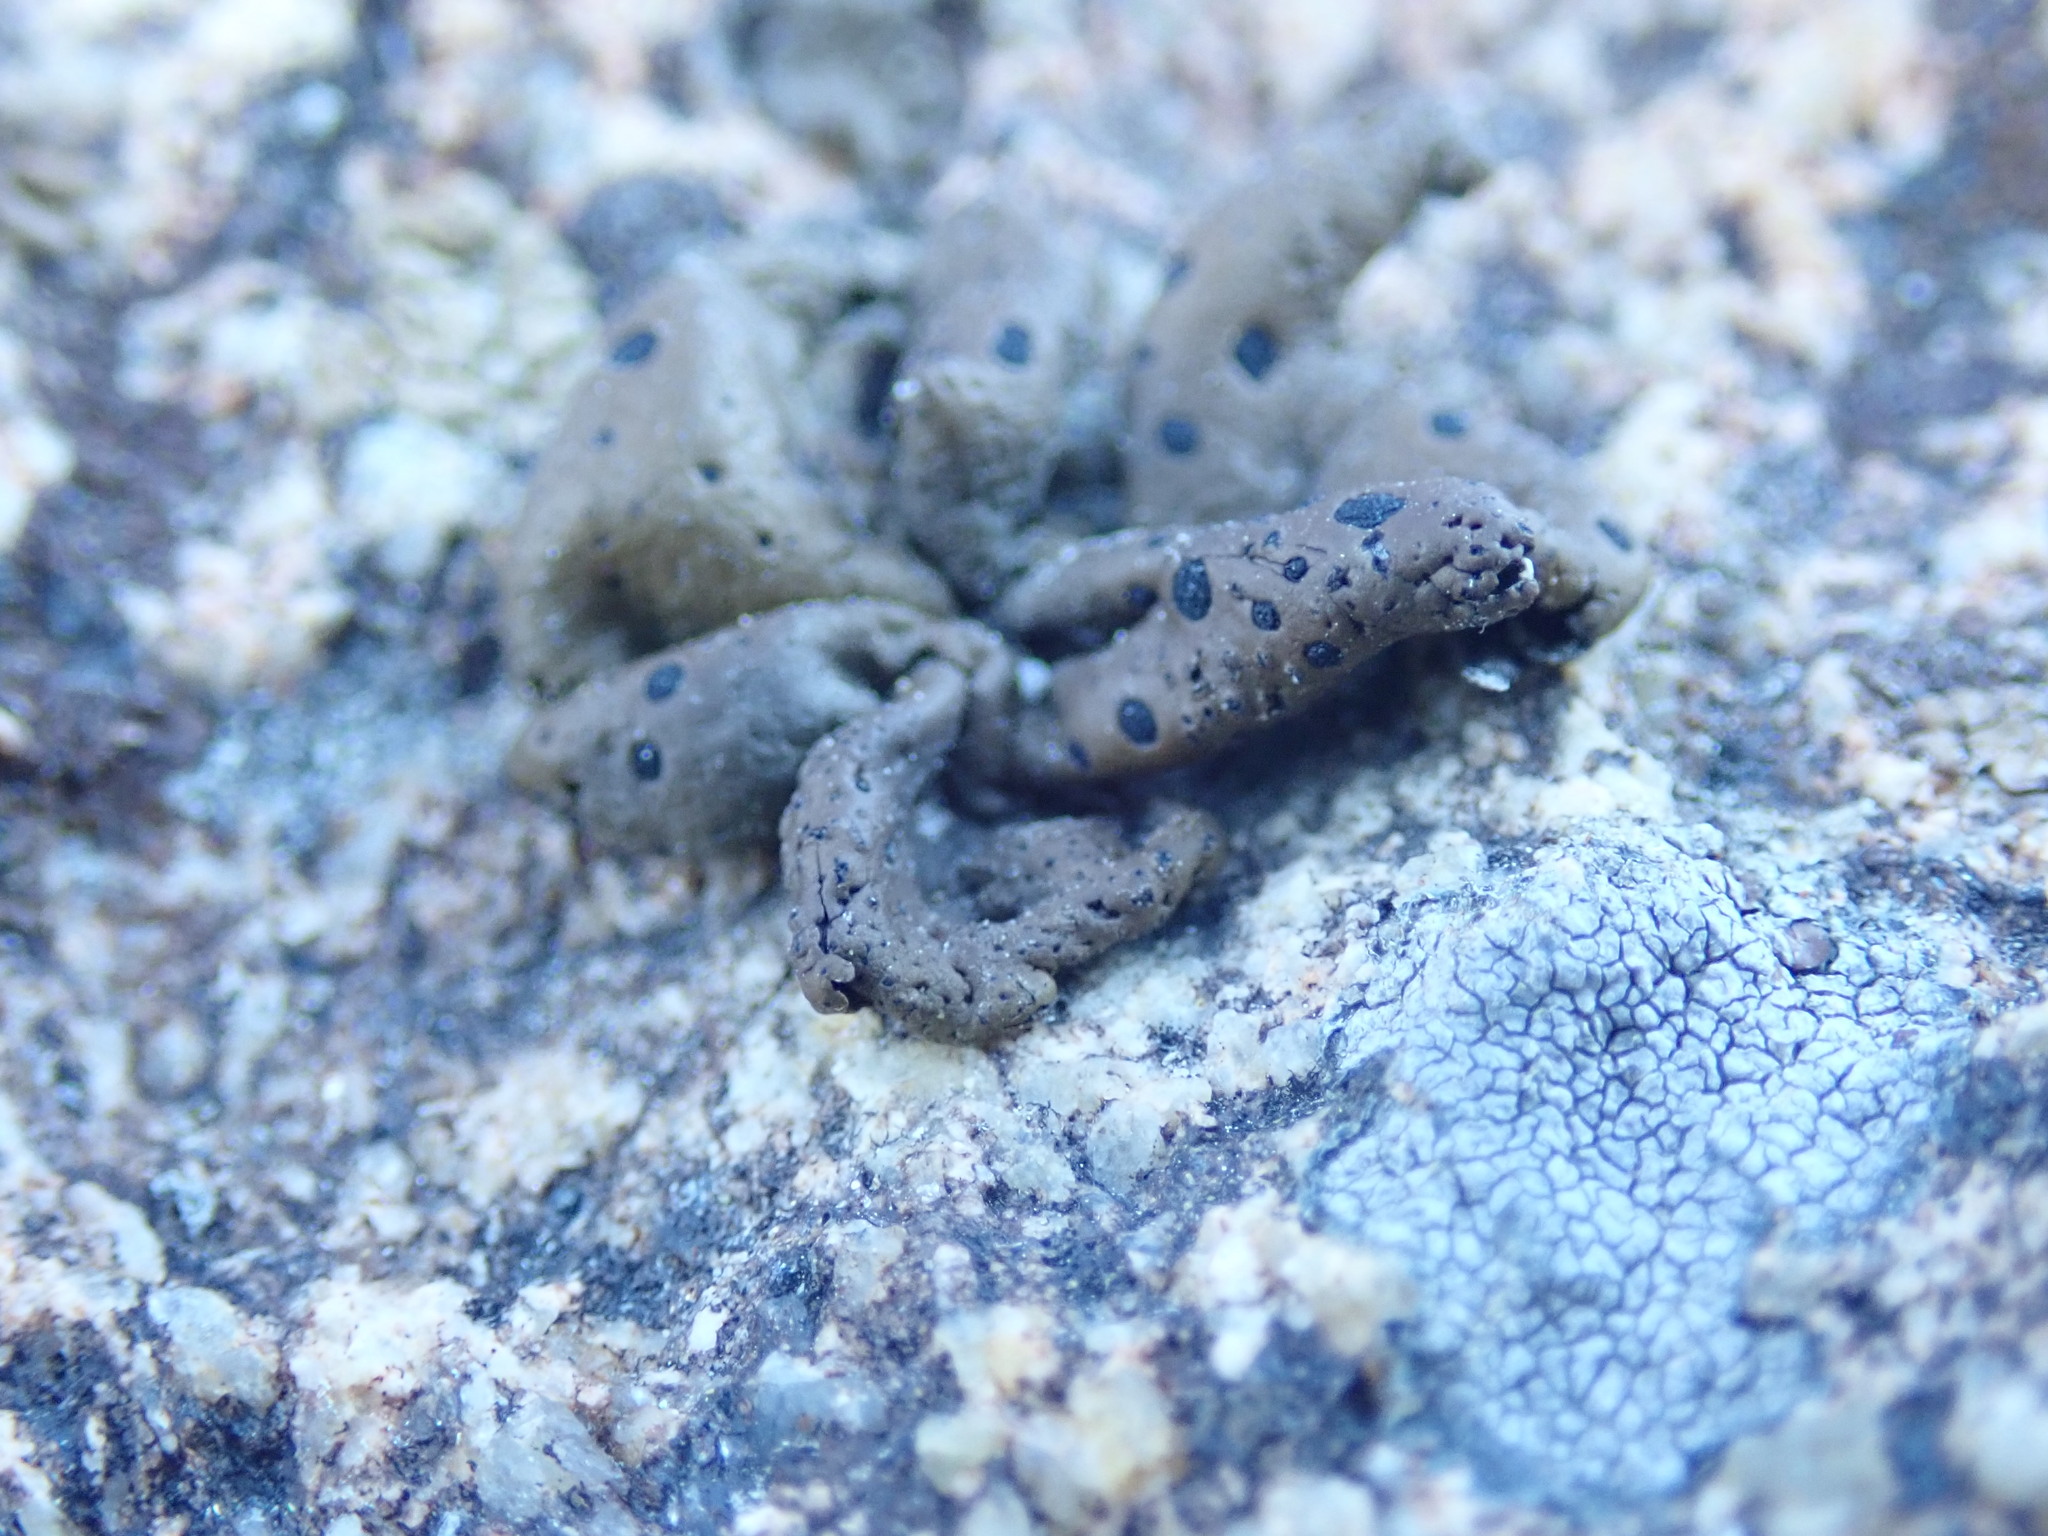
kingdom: Fungi
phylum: Ascomycota
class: Lecanoromycetes
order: Umbilicariales
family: Umbilicariaceae
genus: Umbilicaria
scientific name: Umbilicaria phaea
